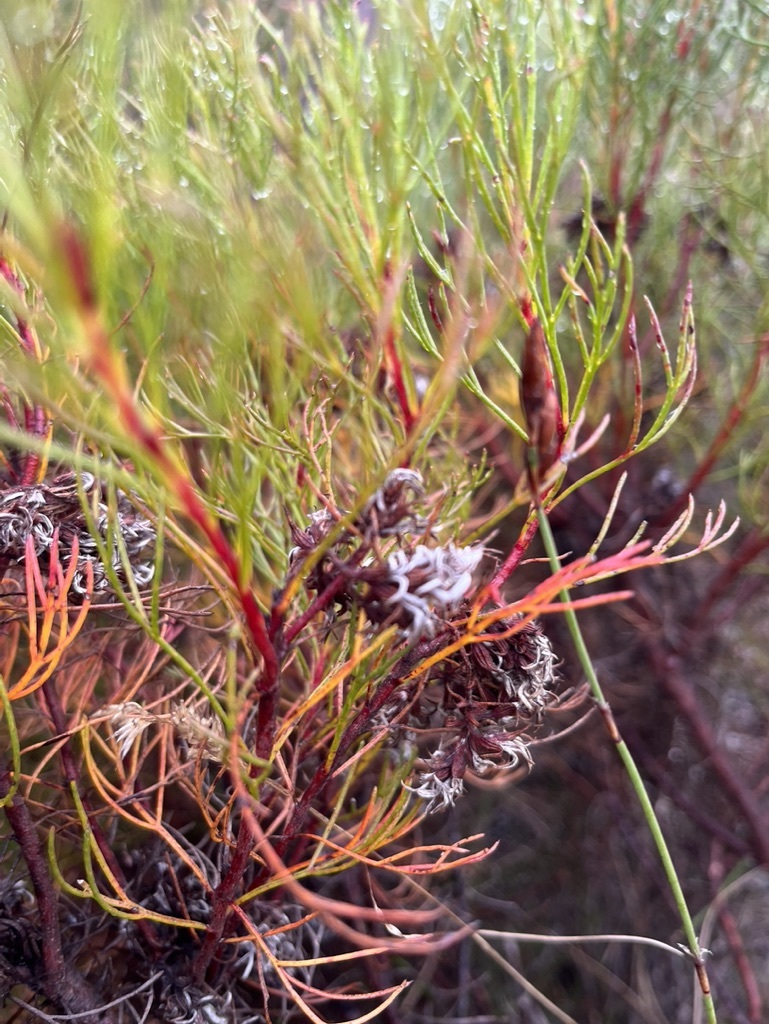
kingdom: Plantae
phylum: Tracheophyta
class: Magnoliopsida
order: Proteales
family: Proteaceae
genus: Serruria
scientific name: Serruria bolusii
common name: Agulhas spiderhead
